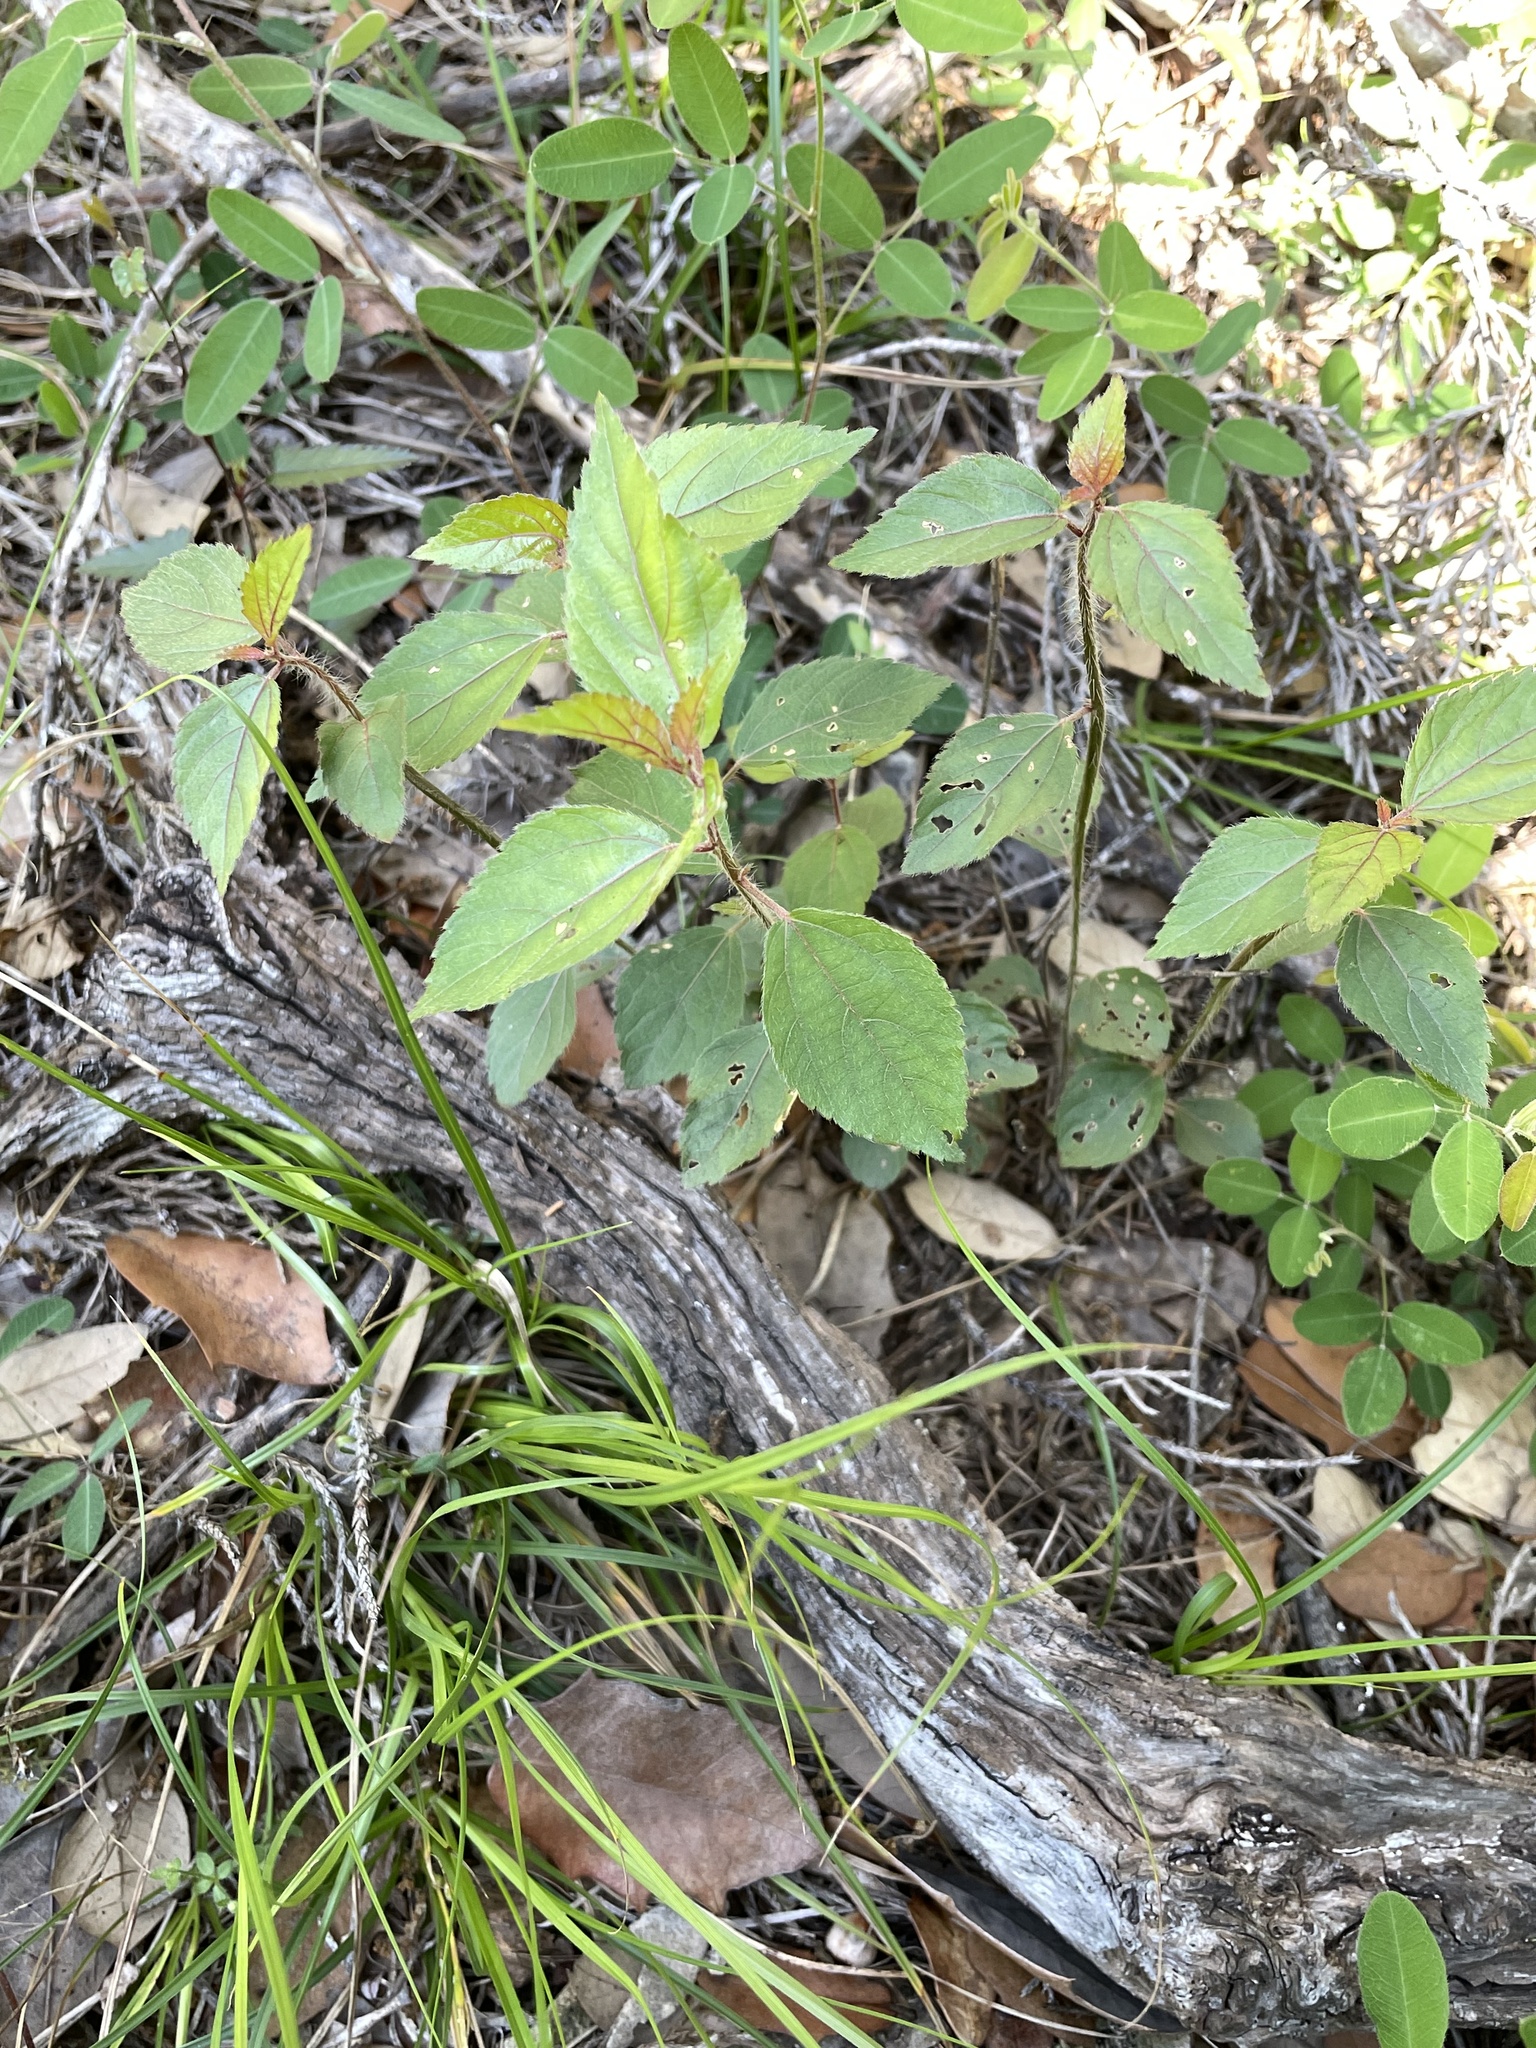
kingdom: Plantae
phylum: Tracheophyta
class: Magnoliopsida
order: Malpighiales
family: Euphorbiaceae
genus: Acalypha
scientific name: Acalypha phleoides
